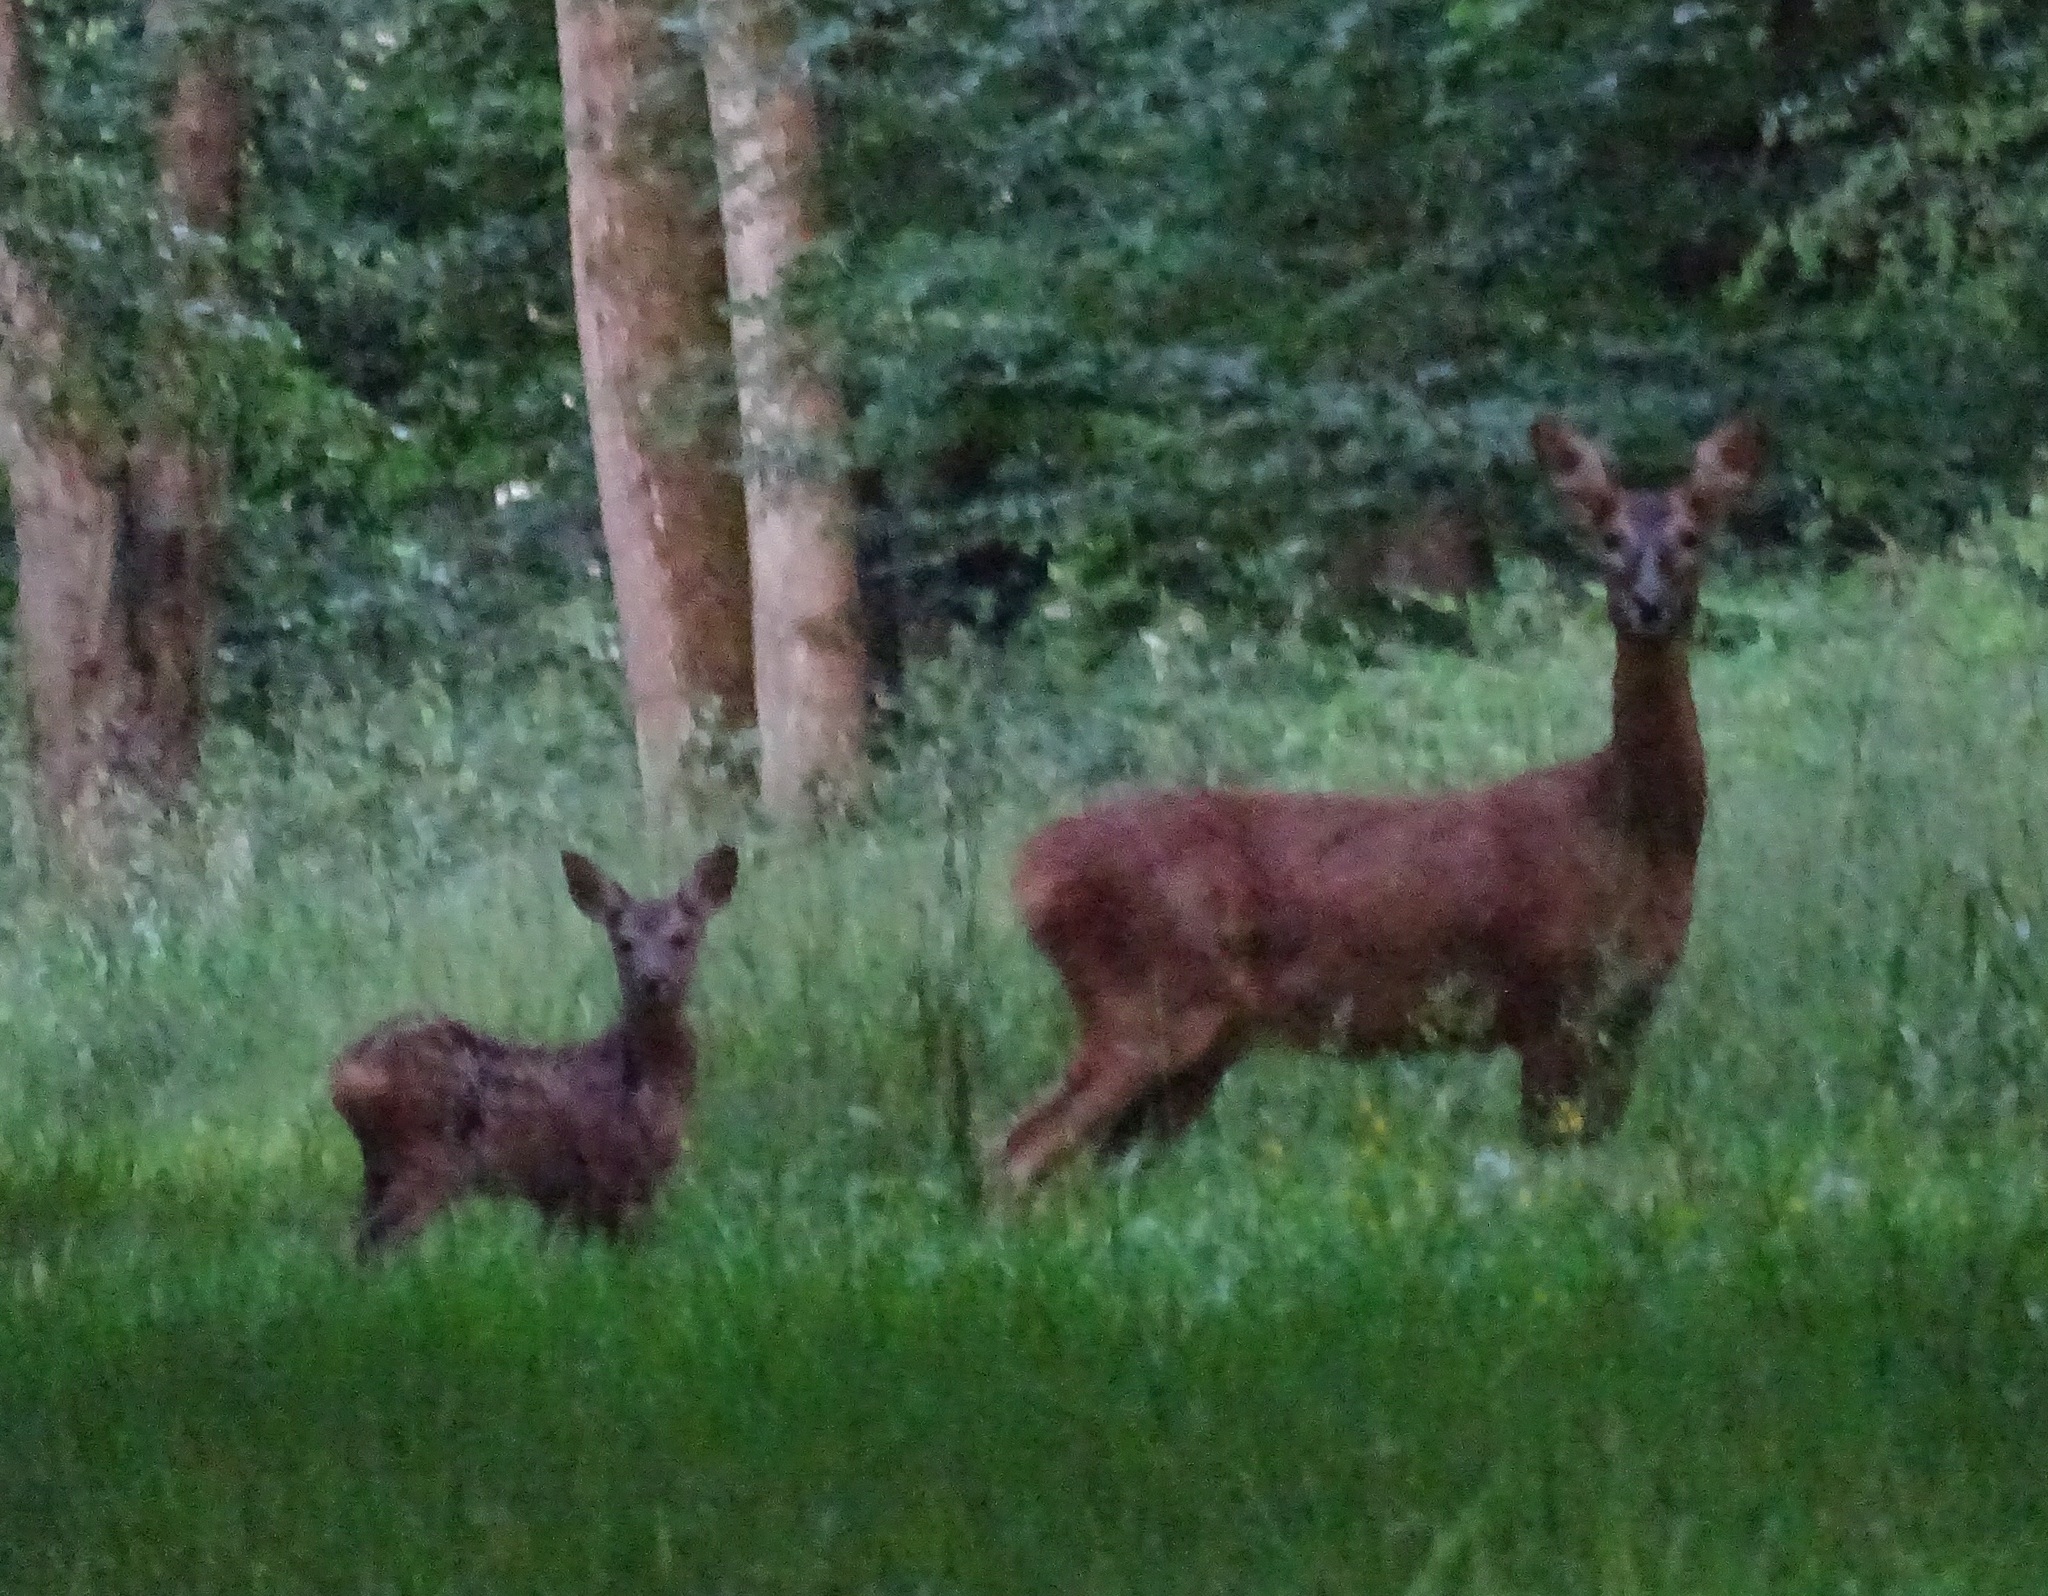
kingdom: Animalia
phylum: Chordata
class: Mammalia
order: Artiodactyla
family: Cervidae
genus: Capreolus
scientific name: Capreolus capreolus
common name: Western roe deer
